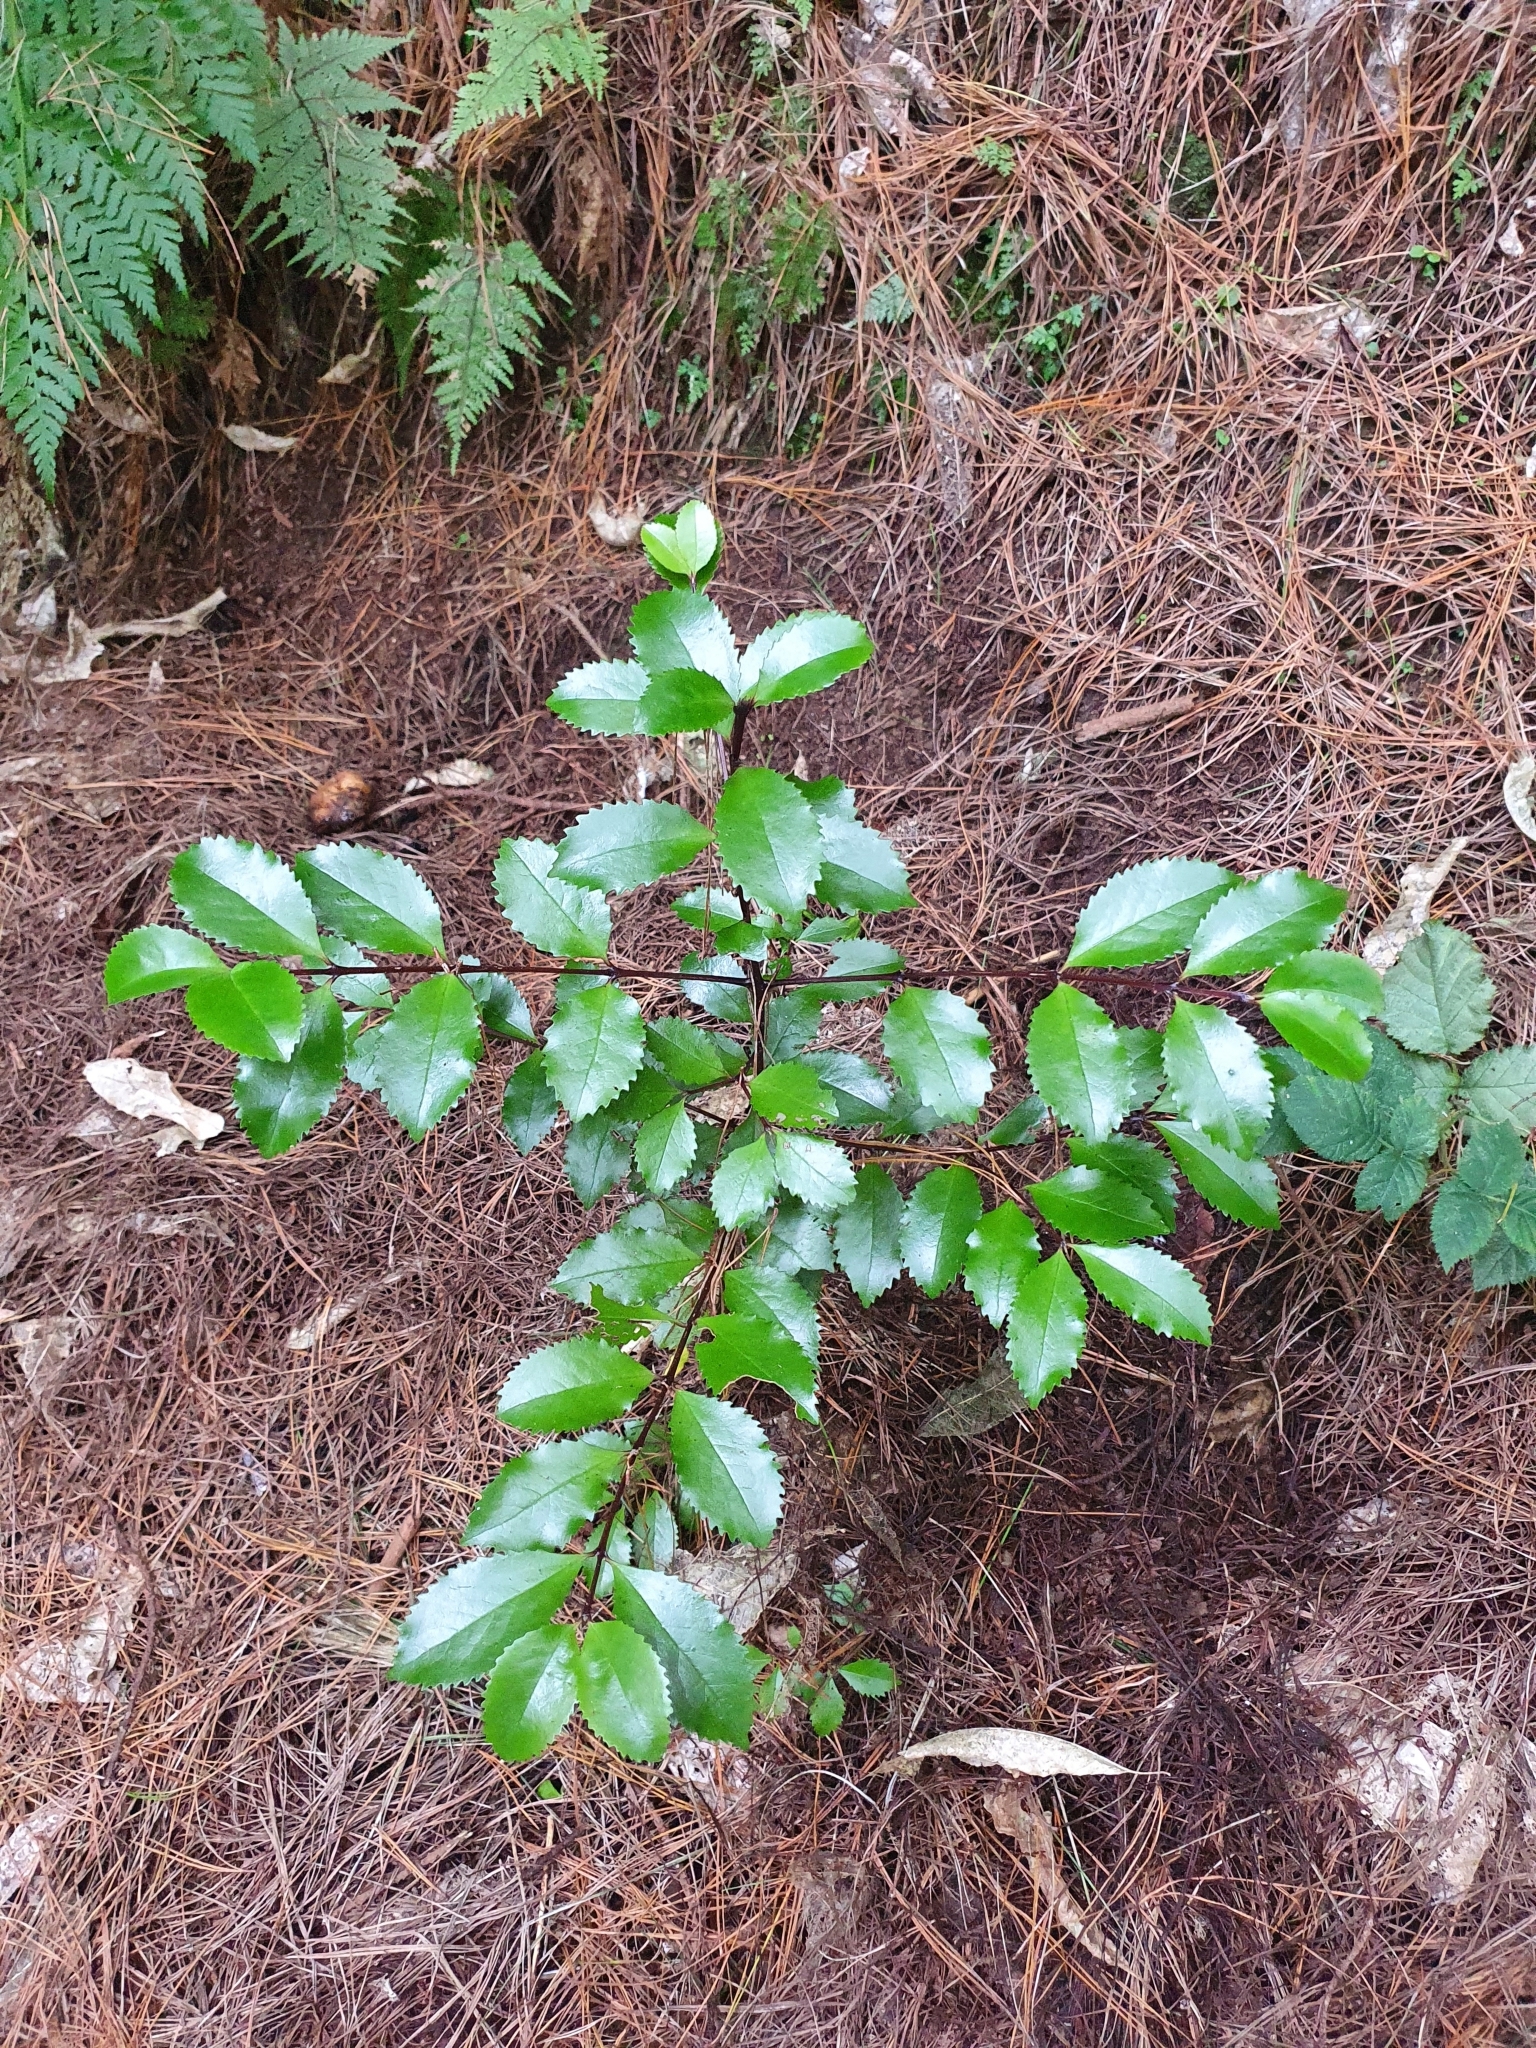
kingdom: Plantae
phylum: Tracheophyta
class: Magnoliopsida
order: Laurales
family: Atherospermataceae
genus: Laurelia
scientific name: Laurelia novae-zelandiae
